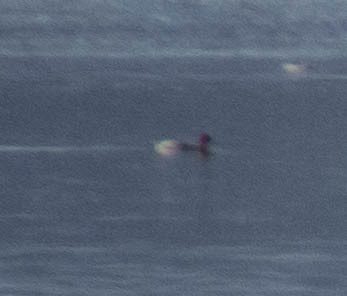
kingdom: Animalia
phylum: Chordata
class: Aves
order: Anseriformes
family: Anatidae
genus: Mareca
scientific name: Mareca penelope
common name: Eurasian wigeon
